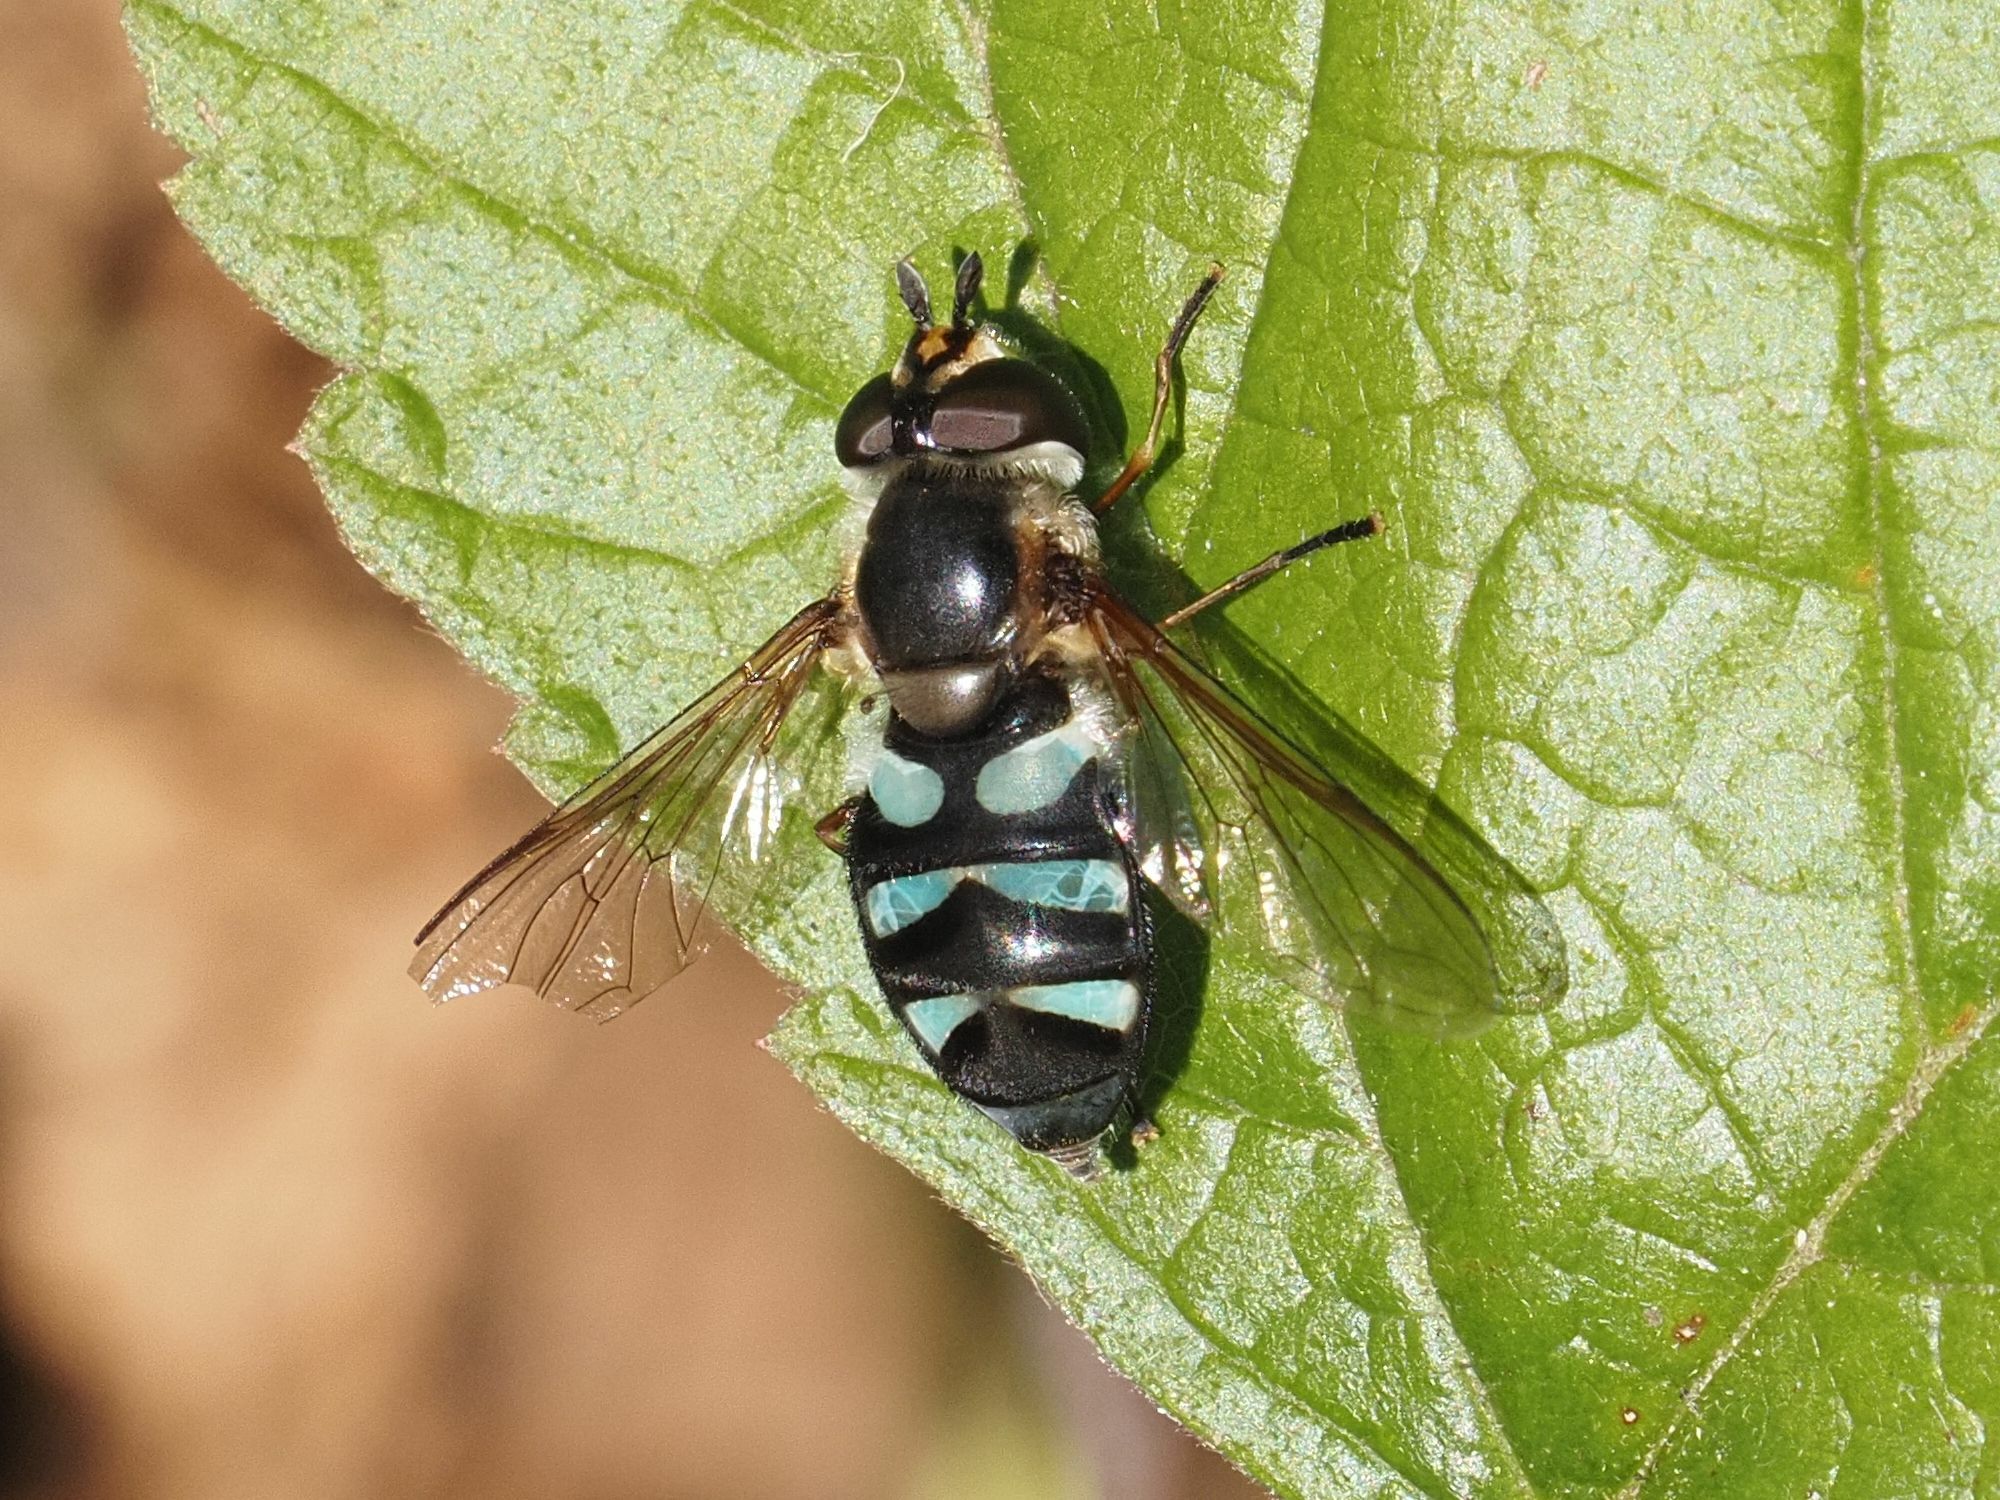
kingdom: Animalia
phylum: Arthropoda
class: Insecta
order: Diptera
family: Syrphidae
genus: Didea
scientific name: Didea alneti
